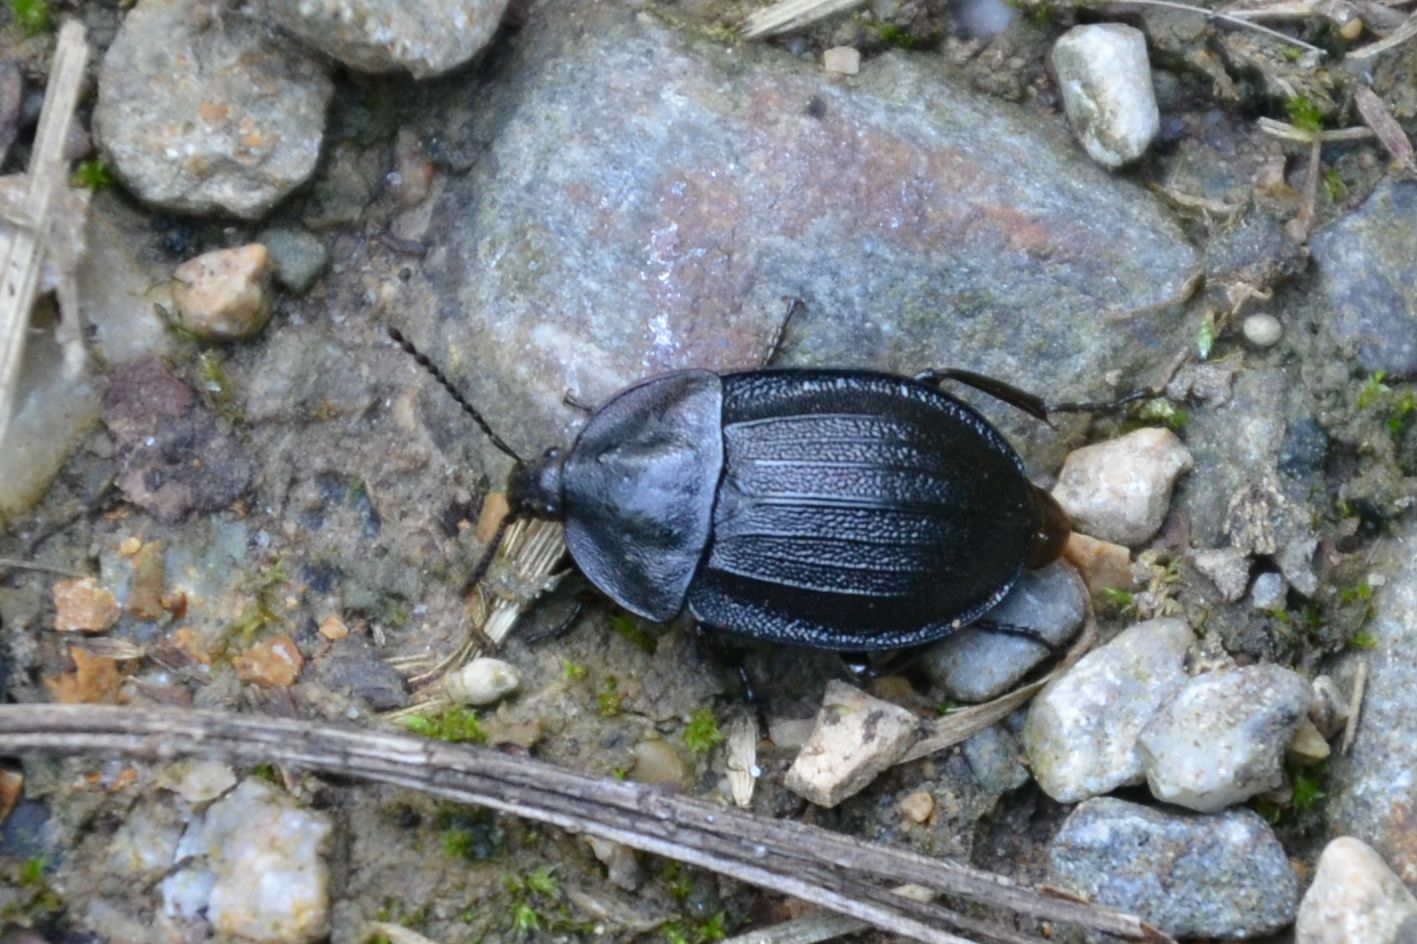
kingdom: Animalia
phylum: Arthropoda
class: Insecta
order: Coleoptera
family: Staphylinidae
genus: Silpha
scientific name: Silpha atrata
